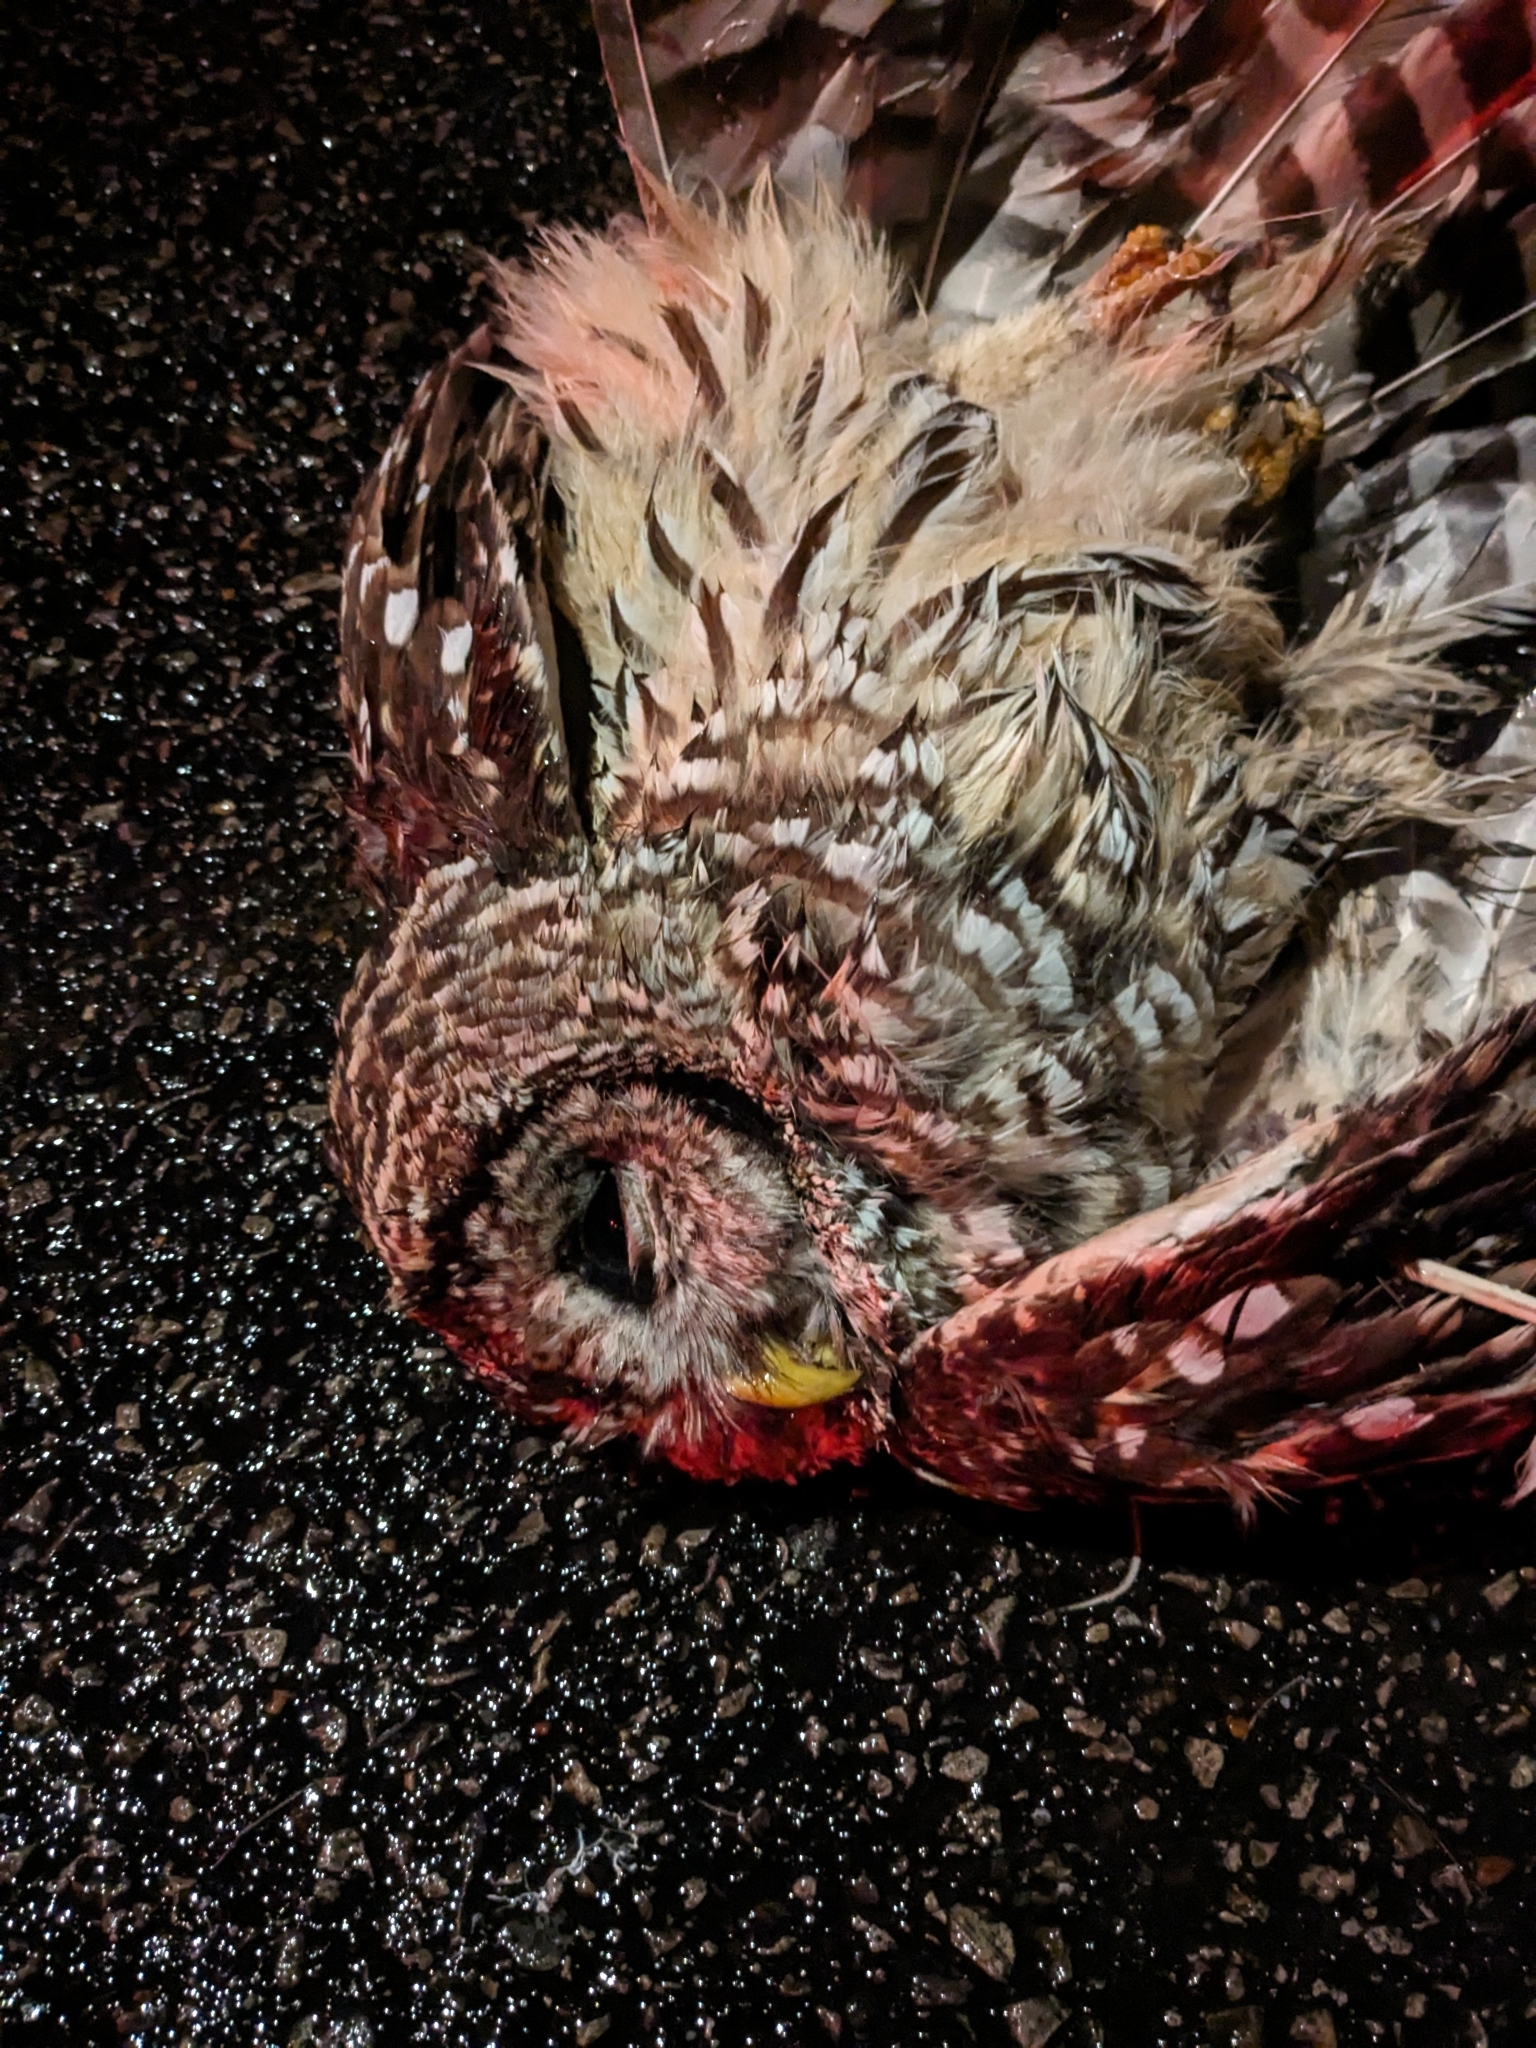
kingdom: Animalia
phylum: Chordata
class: Aves
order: Strigiformes
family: Strigidae
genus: Strix
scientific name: Strix varia
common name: Barred owl
